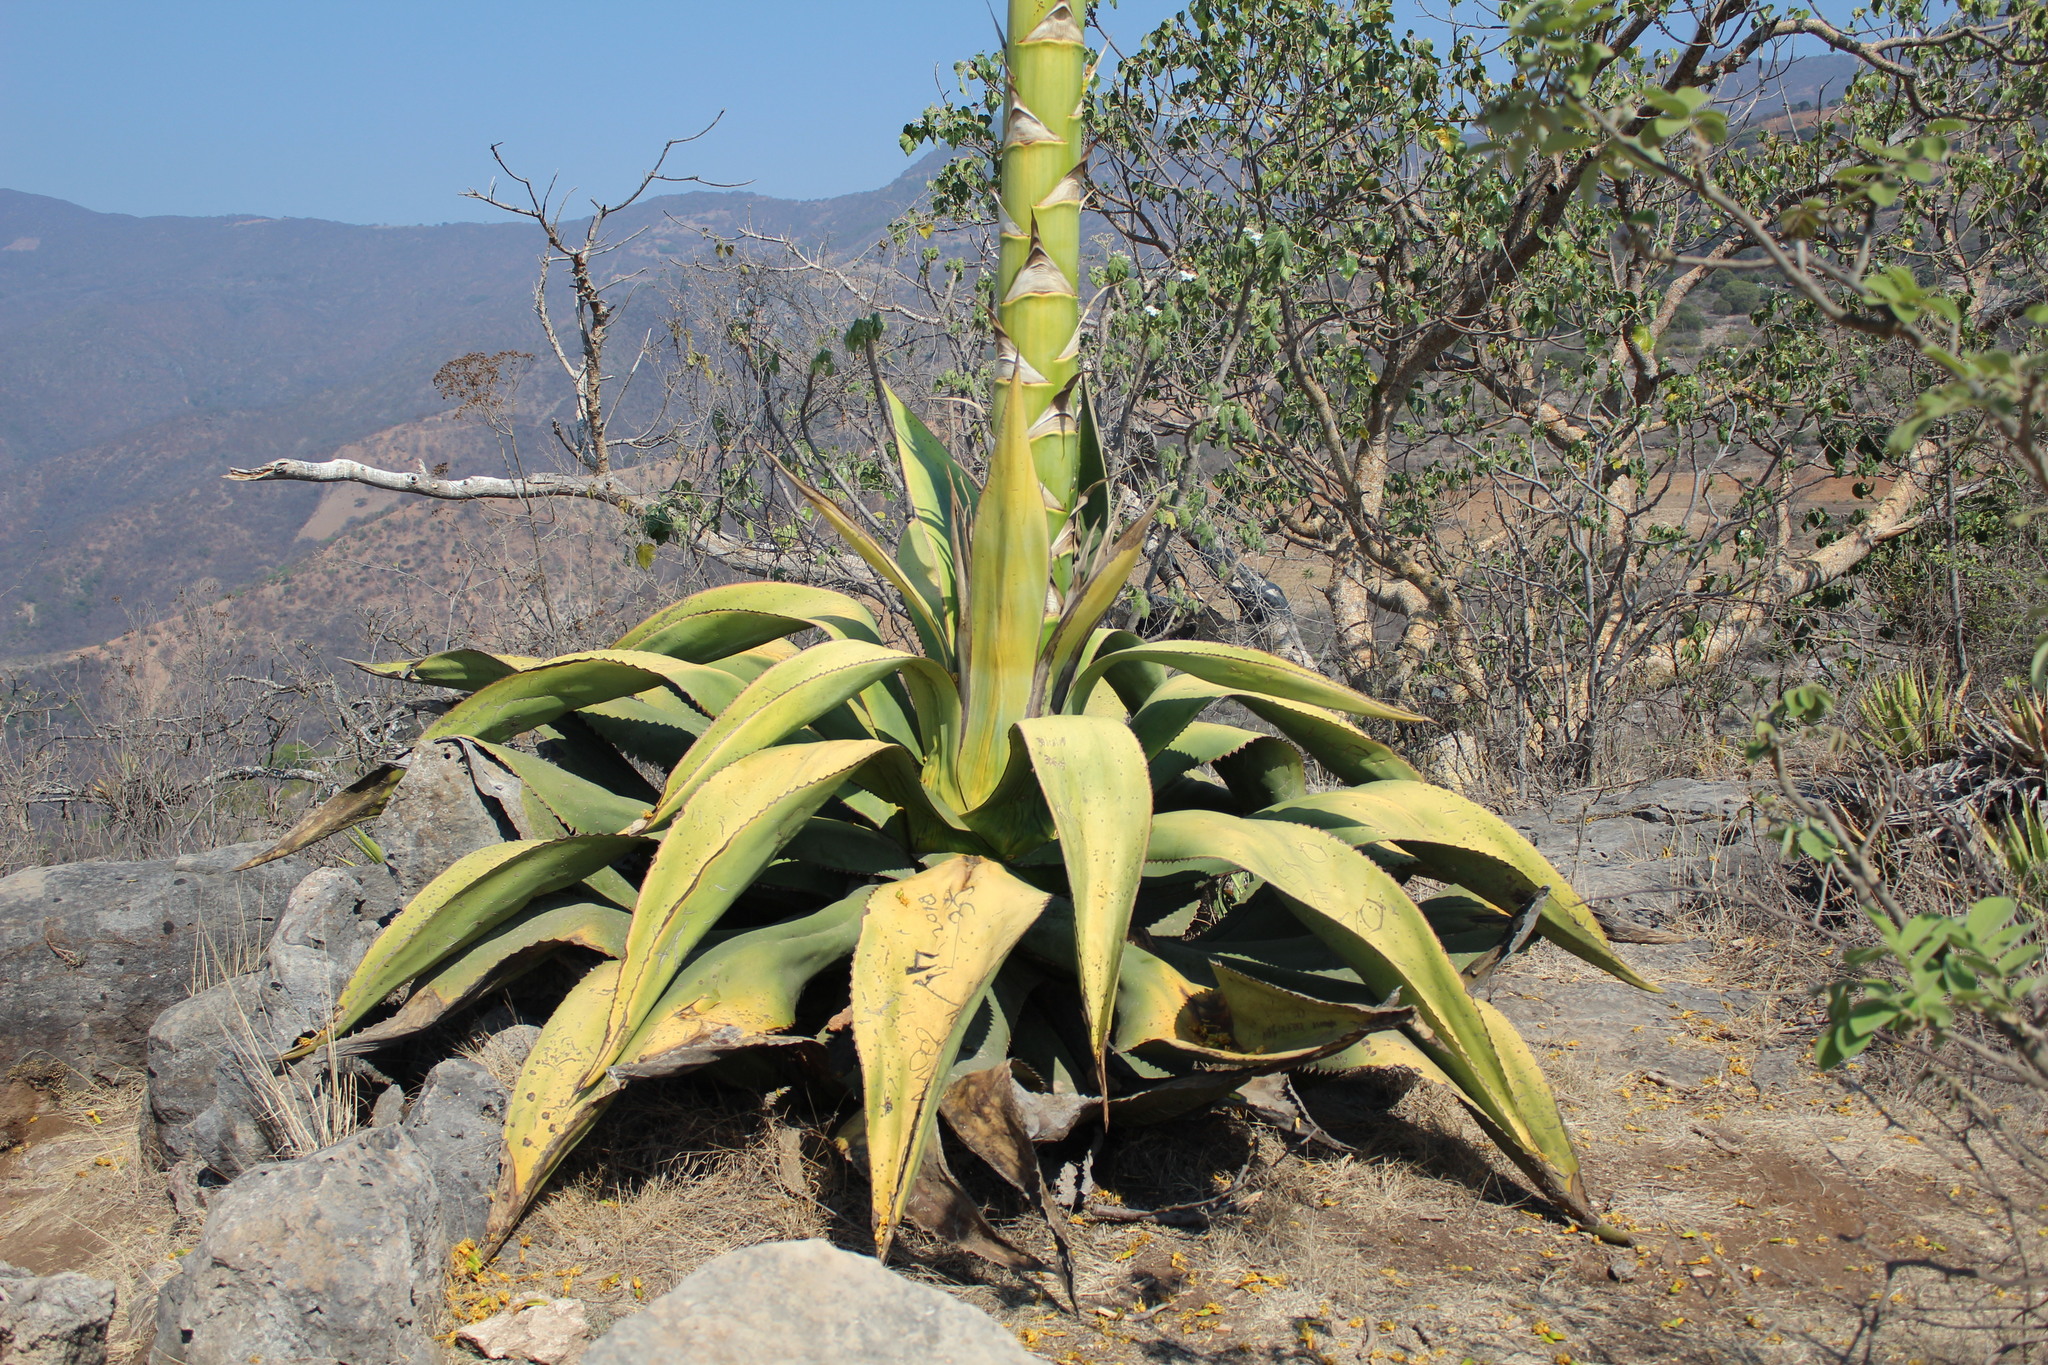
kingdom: Plantae
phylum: Tracheophyta
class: Liliopsida
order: Asparagales
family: Asparagaceae
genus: Agave
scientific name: Agave marmorata
